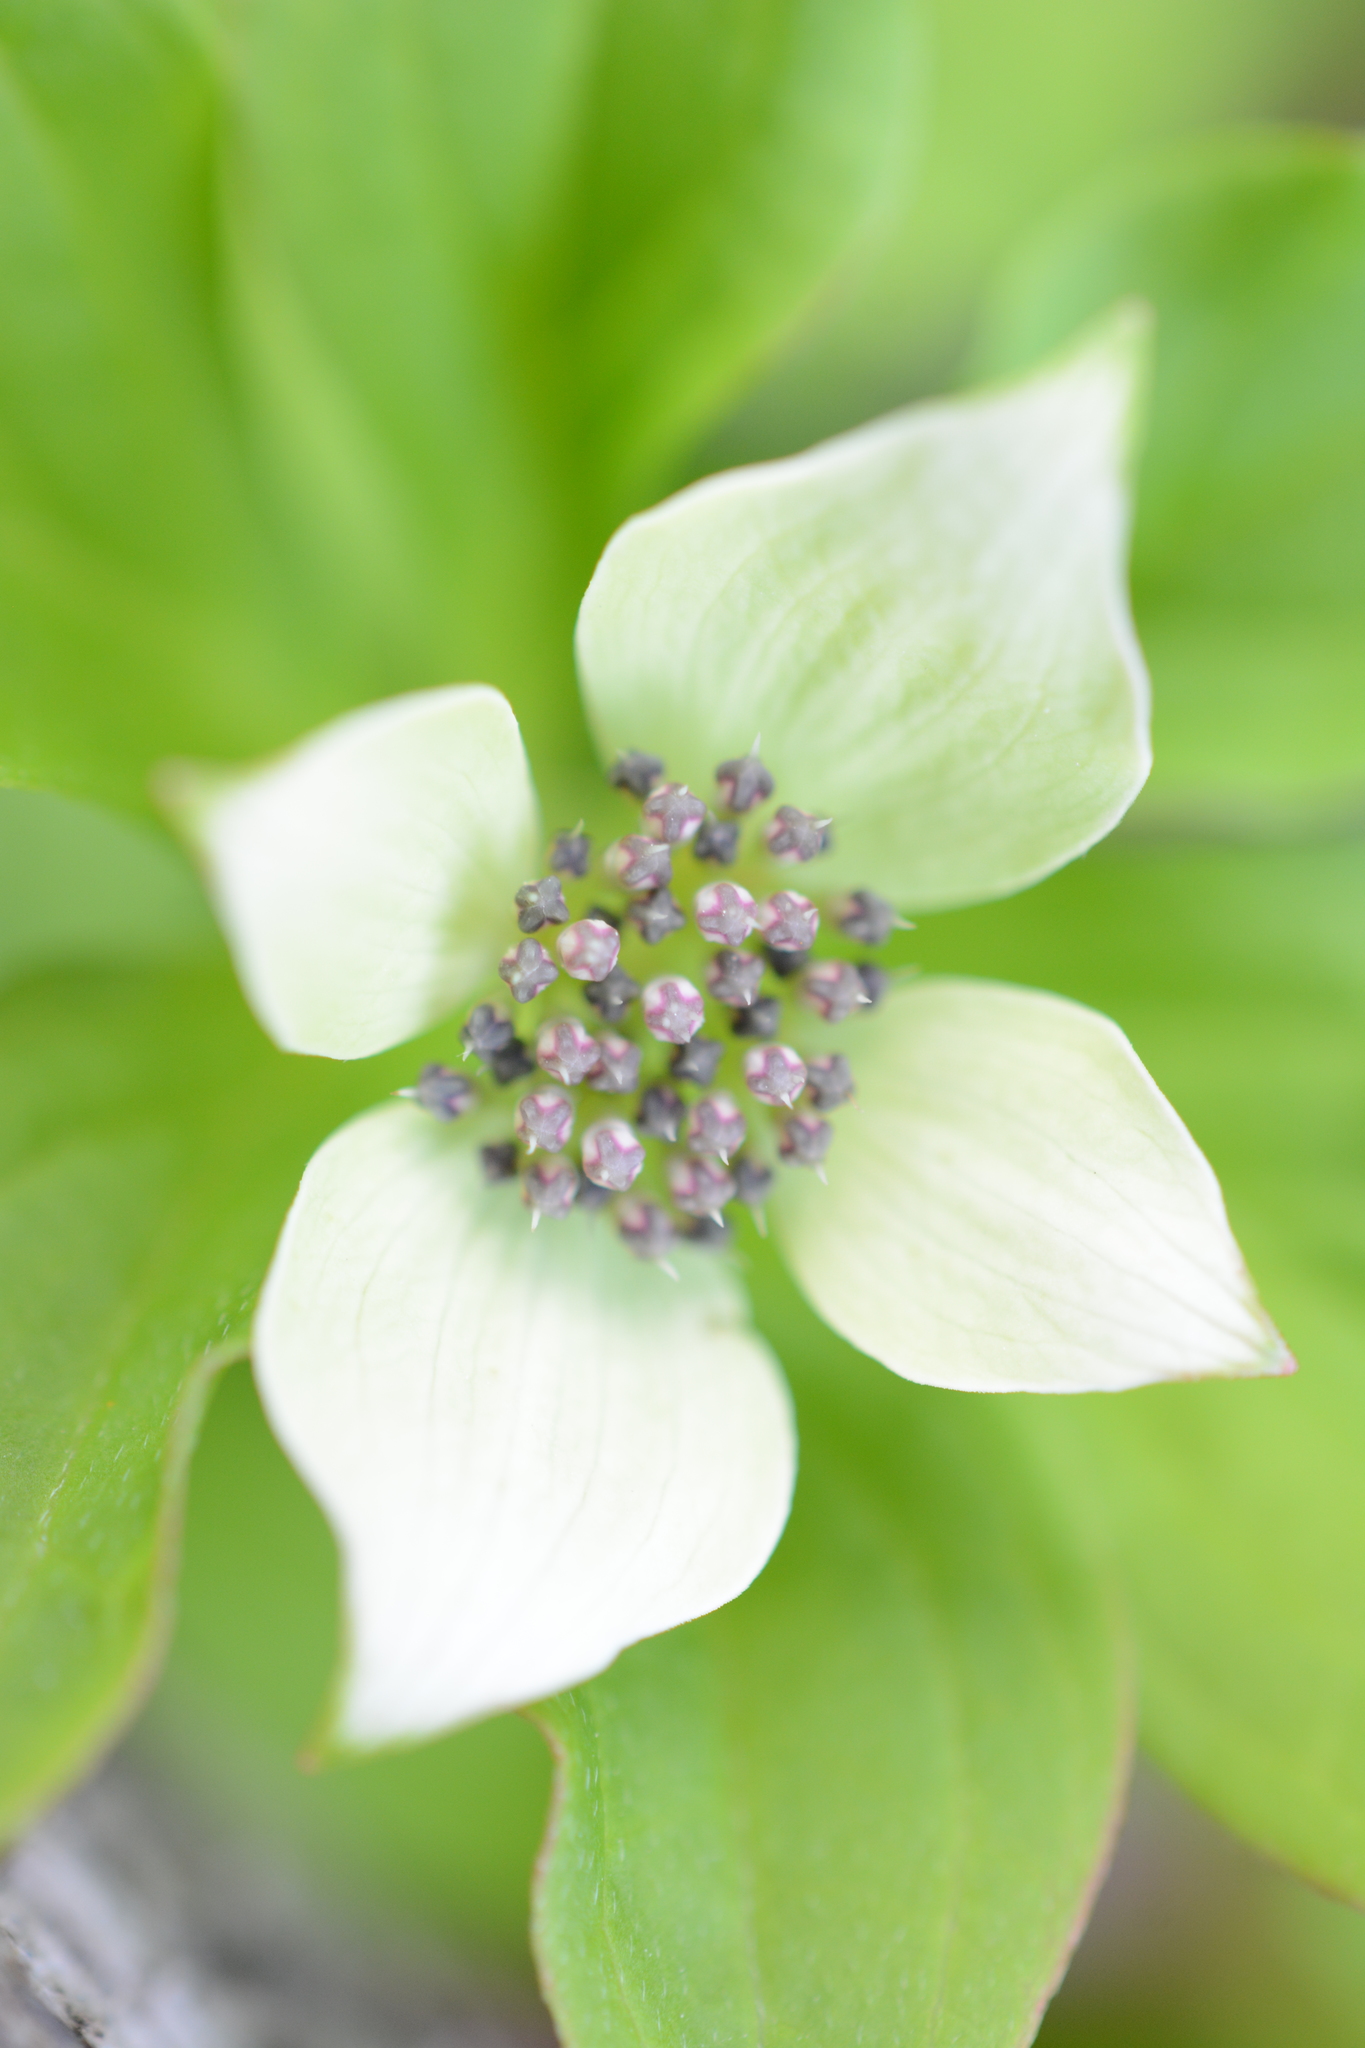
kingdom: Plantae
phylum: Tracheophyta
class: Magnoliopsida
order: Cornales
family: Cornaceae
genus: Cornus
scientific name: Cornus unalaschkensis
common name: Alaska bunchberry
